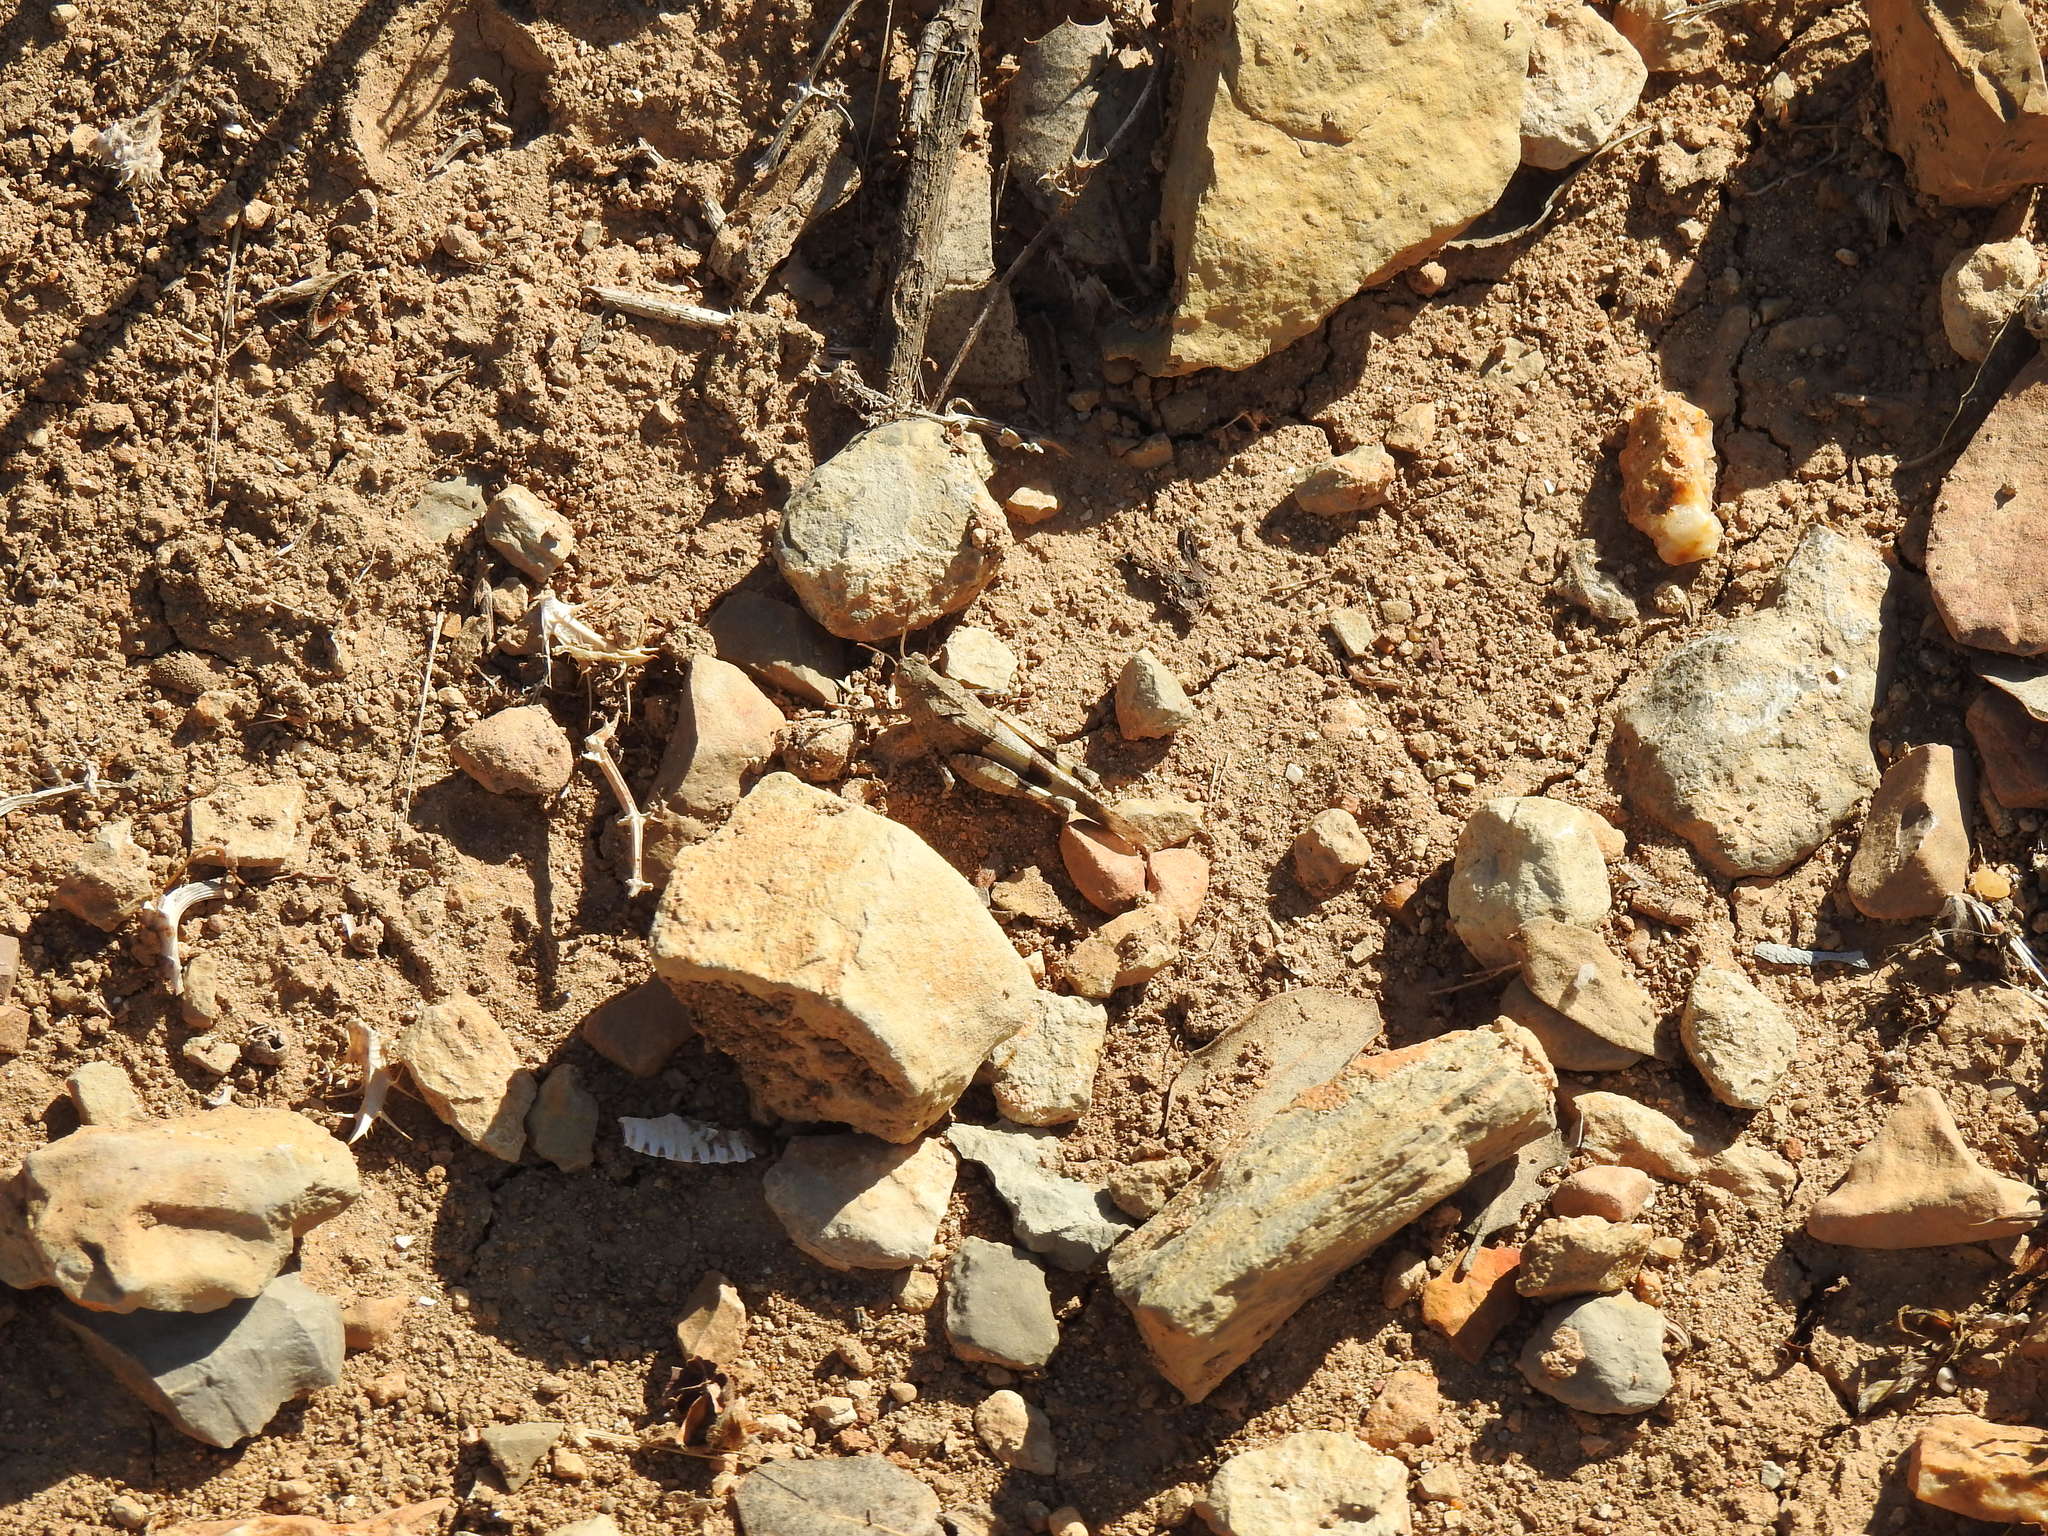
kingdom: Animalia
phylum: Arthropoda
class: Insecta
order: Orthoptera
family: Acrididae
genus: Oedipoda
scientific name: Oedipoda caerulescens
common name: Blue-winged grasshopper
